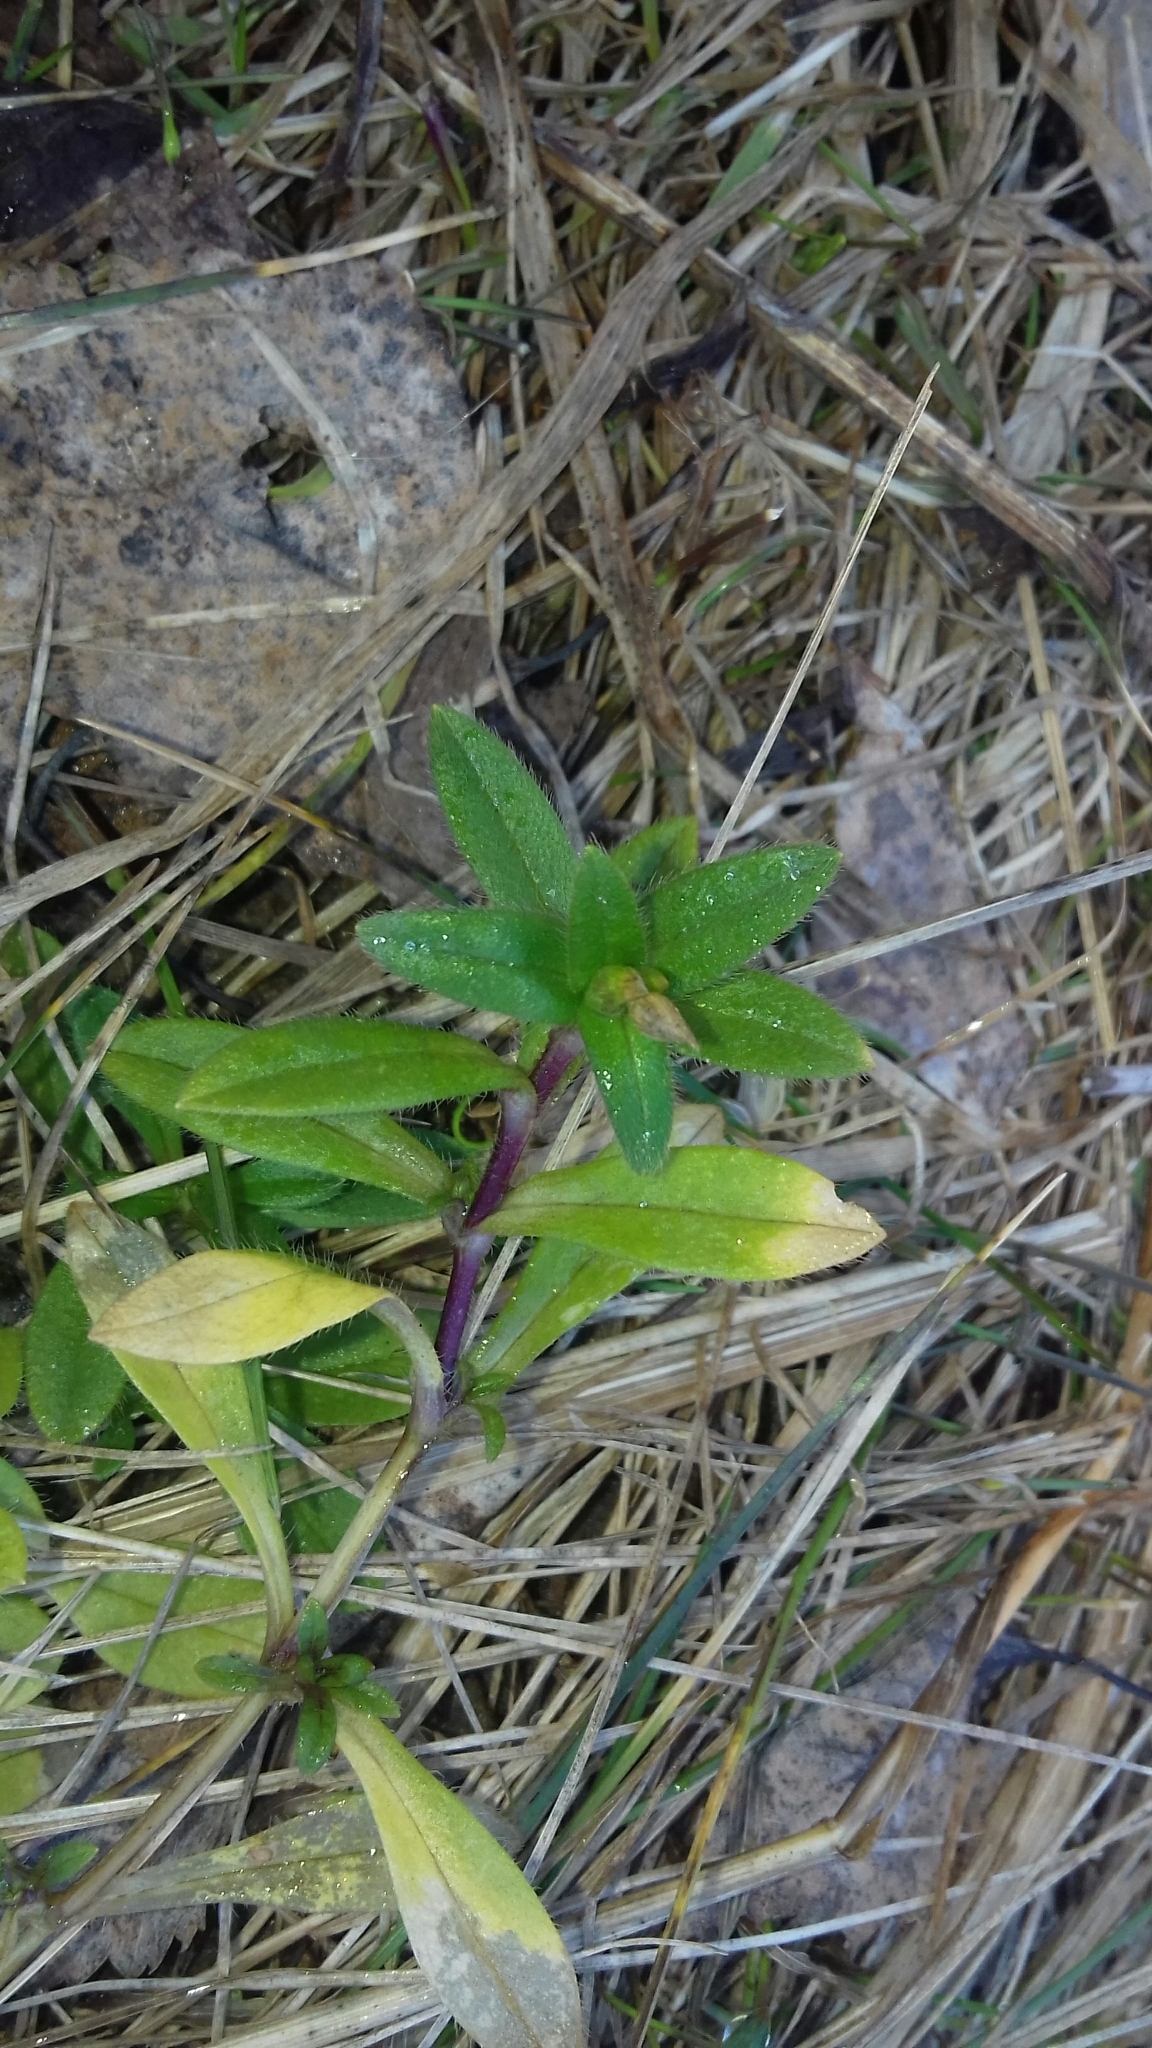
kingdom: Plantae
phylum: Tracheophyta
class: Magnoliopsida
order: Caryophyllales
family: Caryophyllaceae
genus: Cerastium
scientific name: Cerastium holosteoides
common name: Big chickweed
